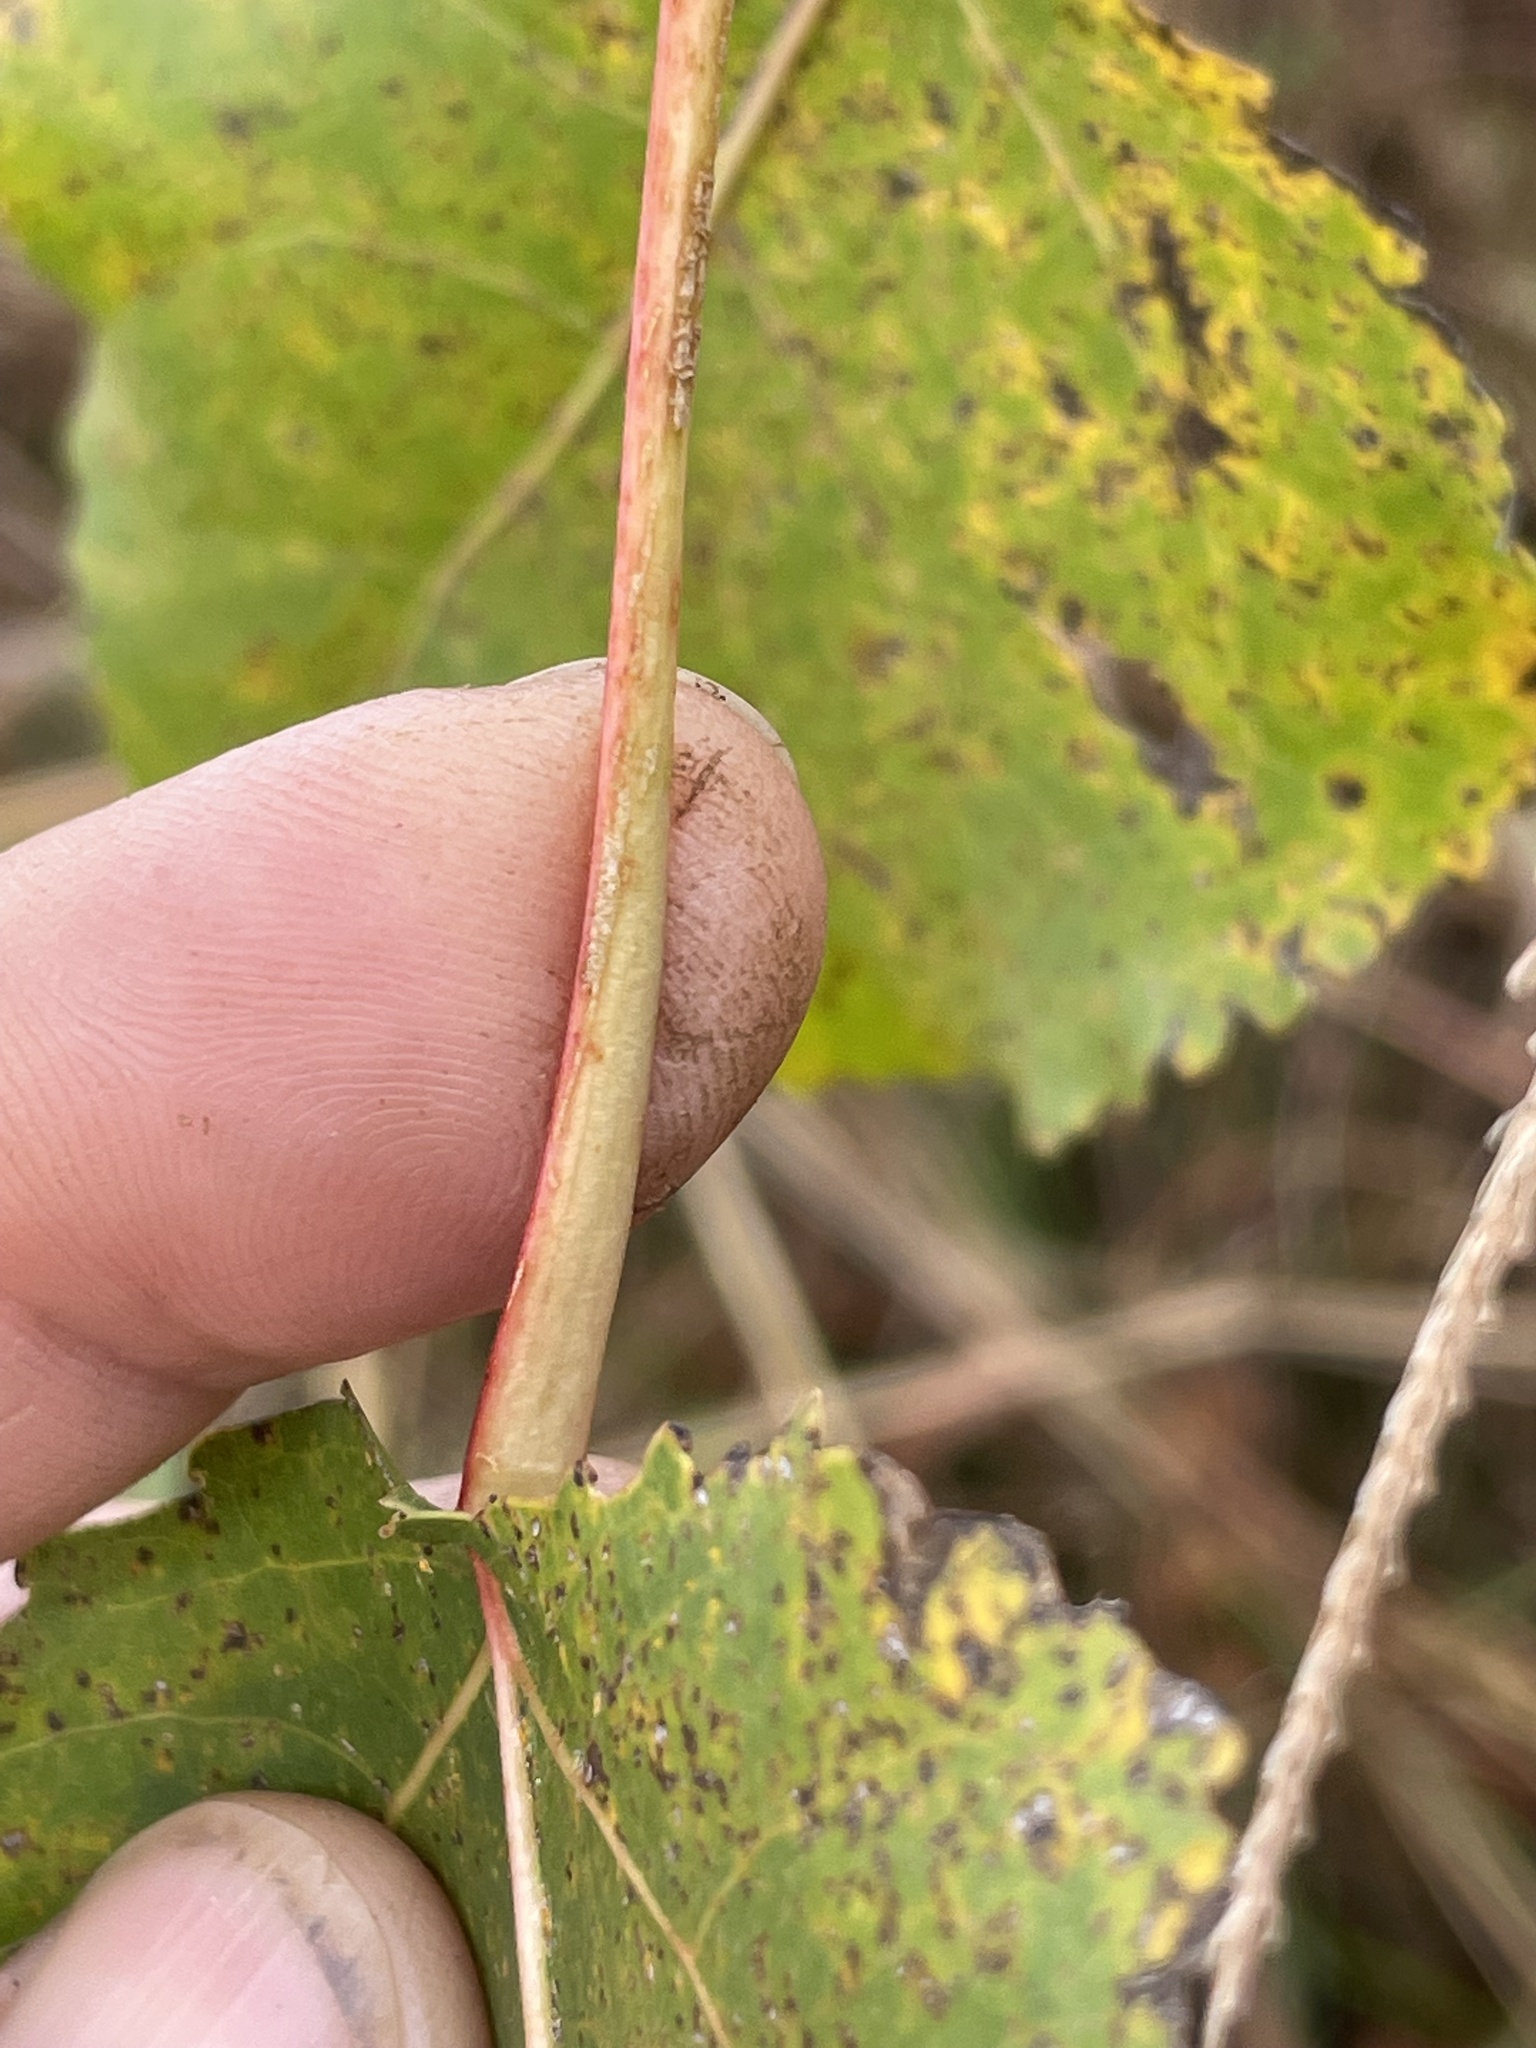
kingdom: Plantae
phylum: Tracheophyta
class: Magnoliopsida
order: Malpighiales
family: Salicaceae
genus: Populus
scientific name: Populus deltoides
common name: Eastern cottonwood
